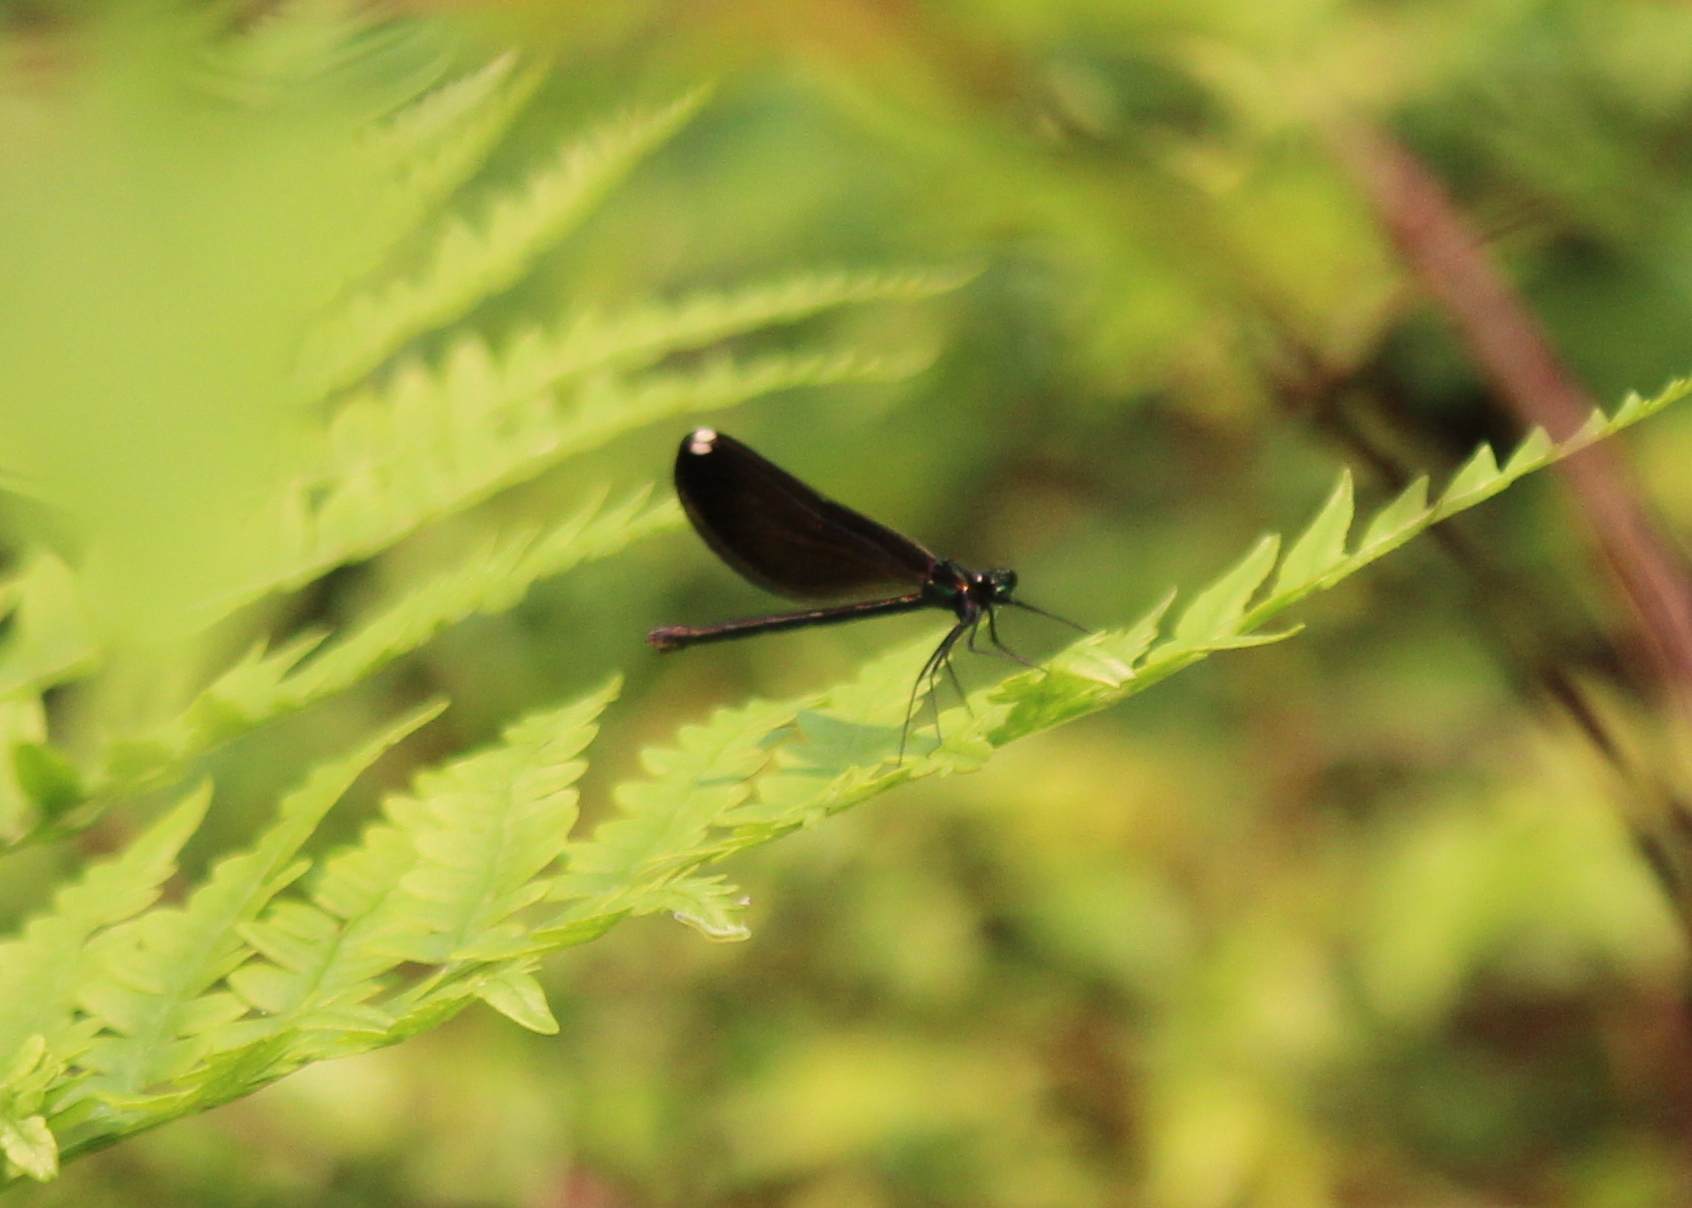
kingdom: Animalia
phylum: Arthropoda
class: Insecta
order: Odonata
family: Calopterygidae
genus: Calopteryx
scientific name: Calopteryx maculata
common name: Ebony jewelwing
